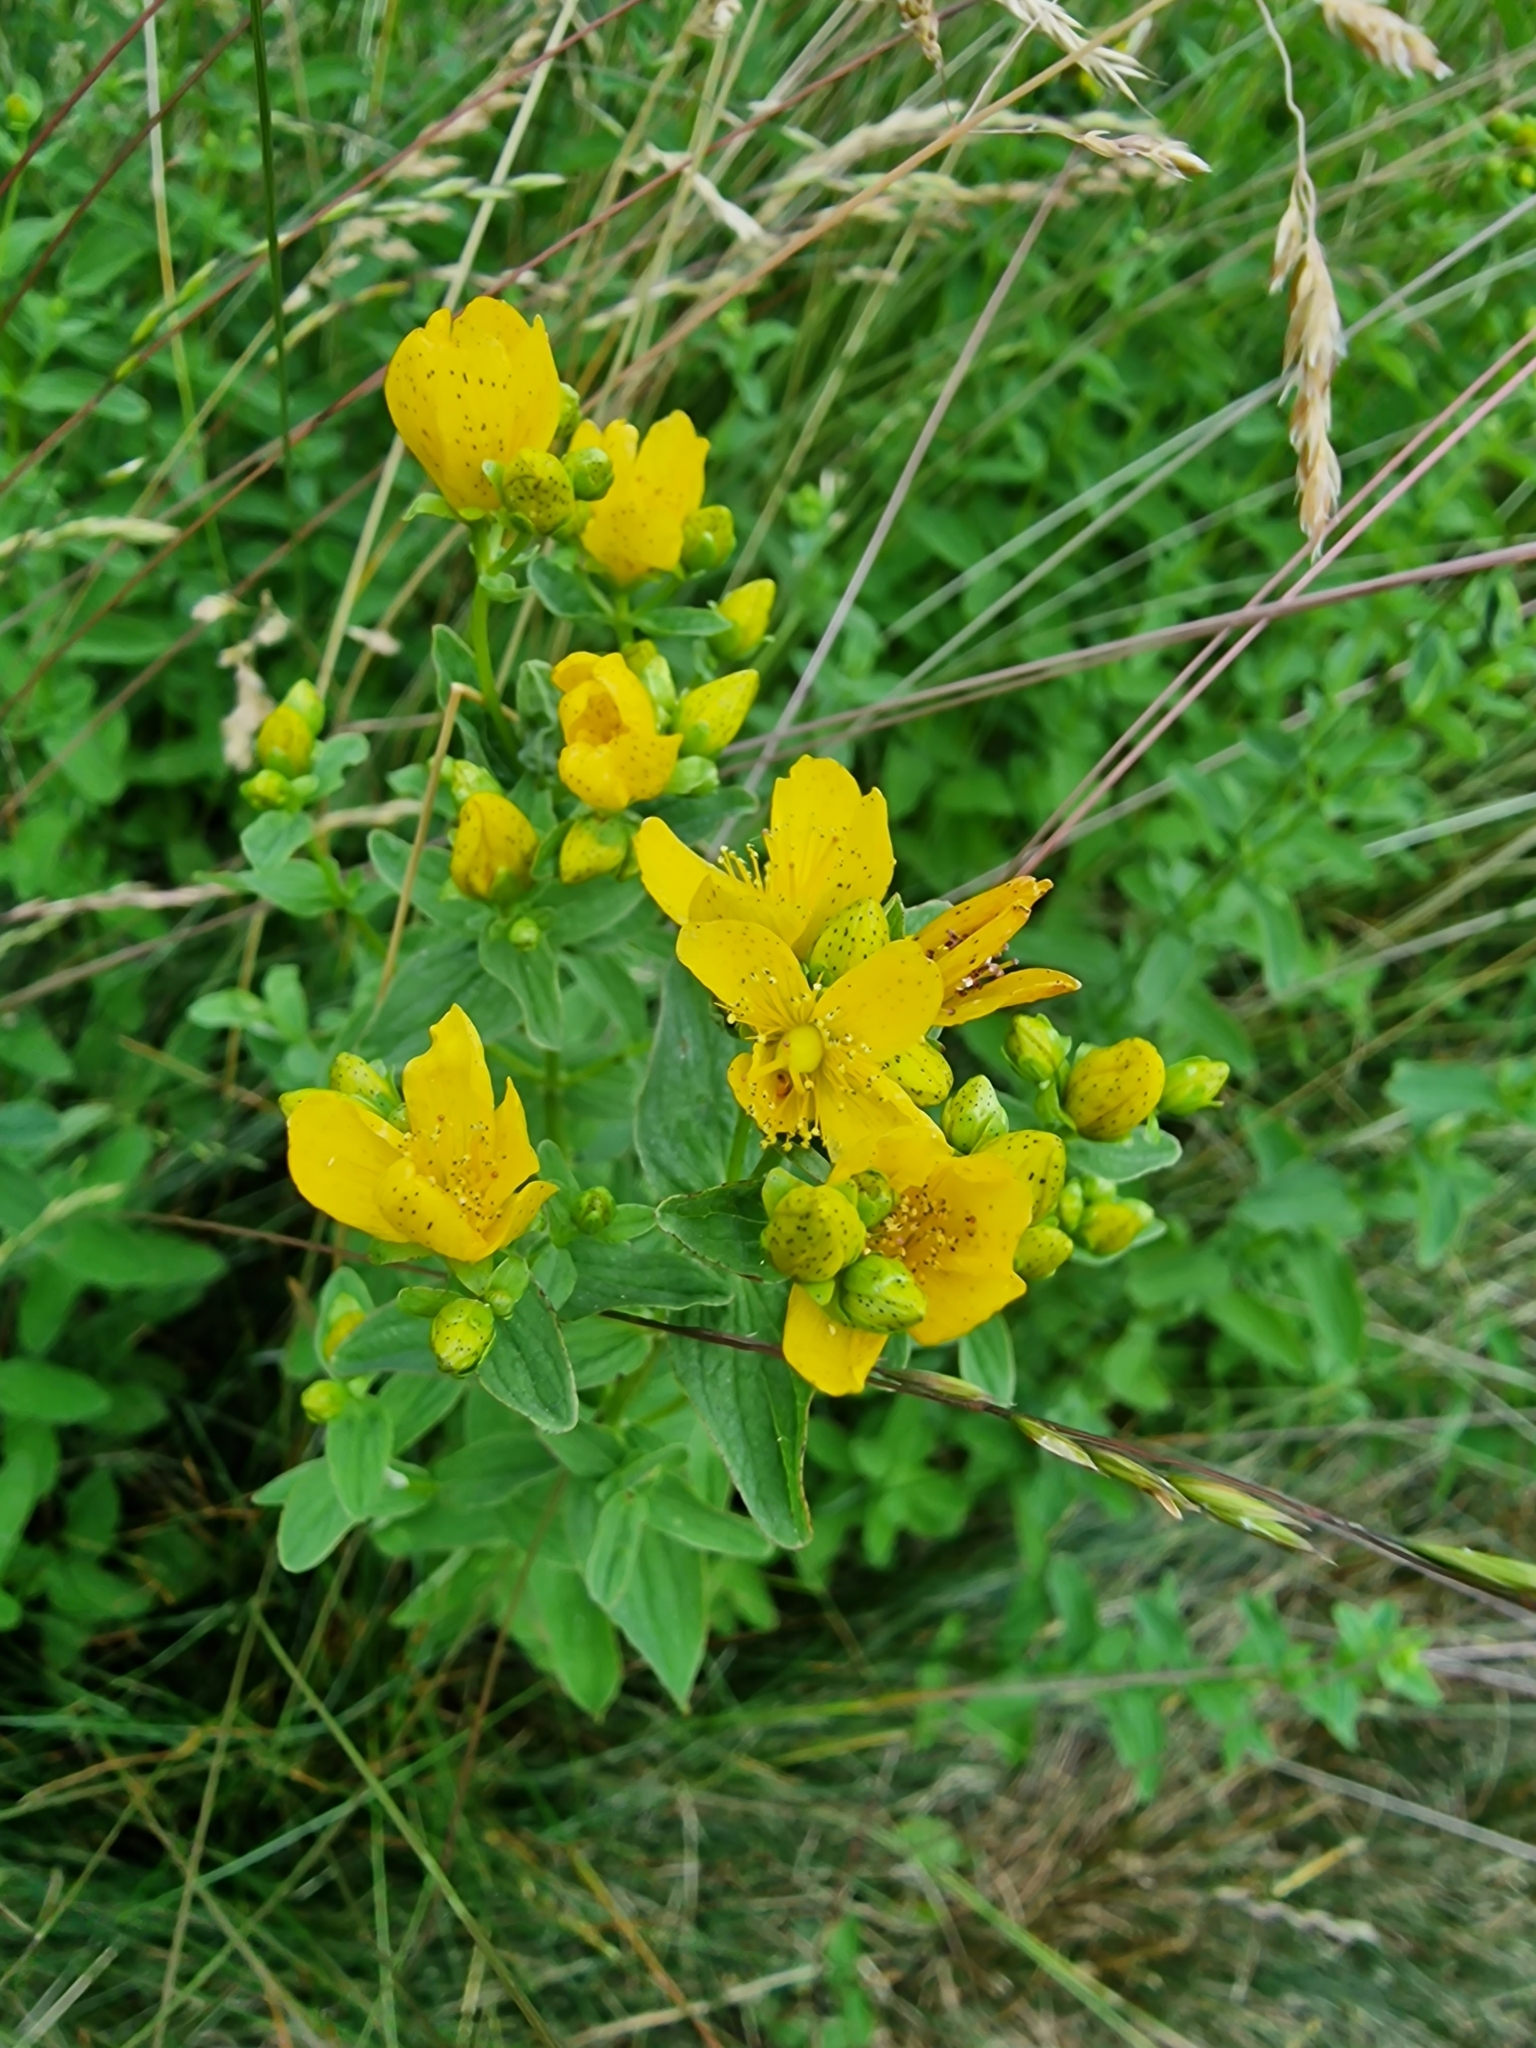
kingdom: Plantae
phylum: Tracheophyta
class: Magnoliopsida
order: Malpighiales
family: Hypericaceae
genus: Hypericum
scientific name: Hypericum maculatum
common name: Imperforate st. john's-wort
